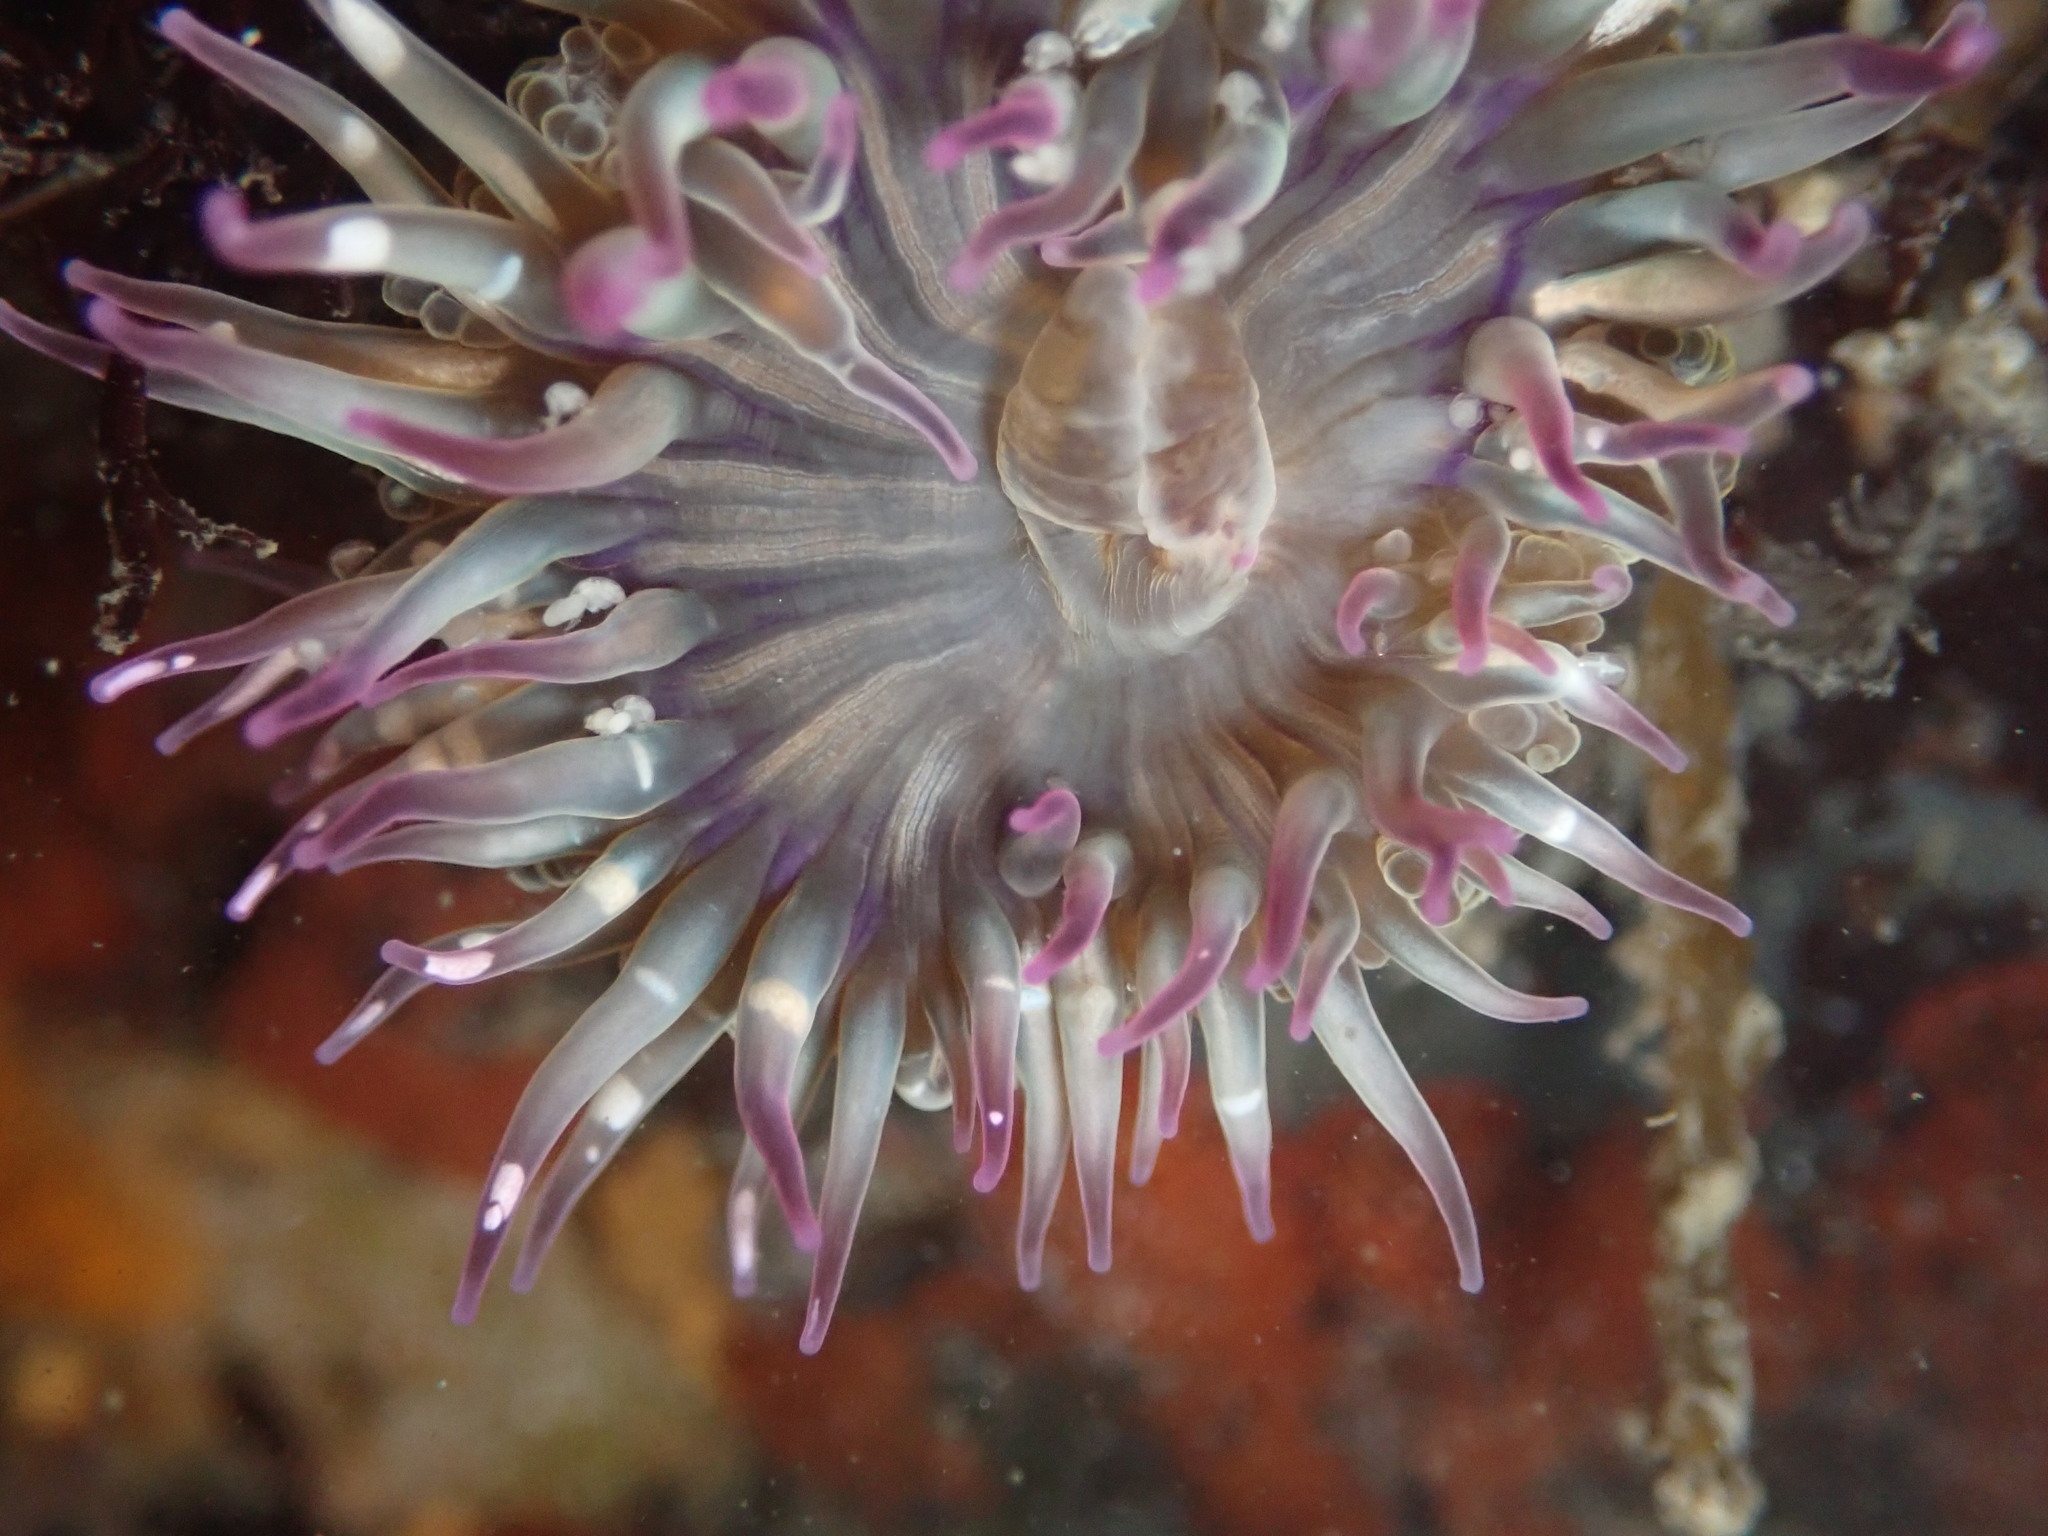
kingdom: Animalia
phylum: Cnidaria
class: Anthozoa
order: Actiniaria
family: Actiniidae
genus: Anthopleura
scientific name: Anthopleura elegantissima
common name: Clonal anemone
